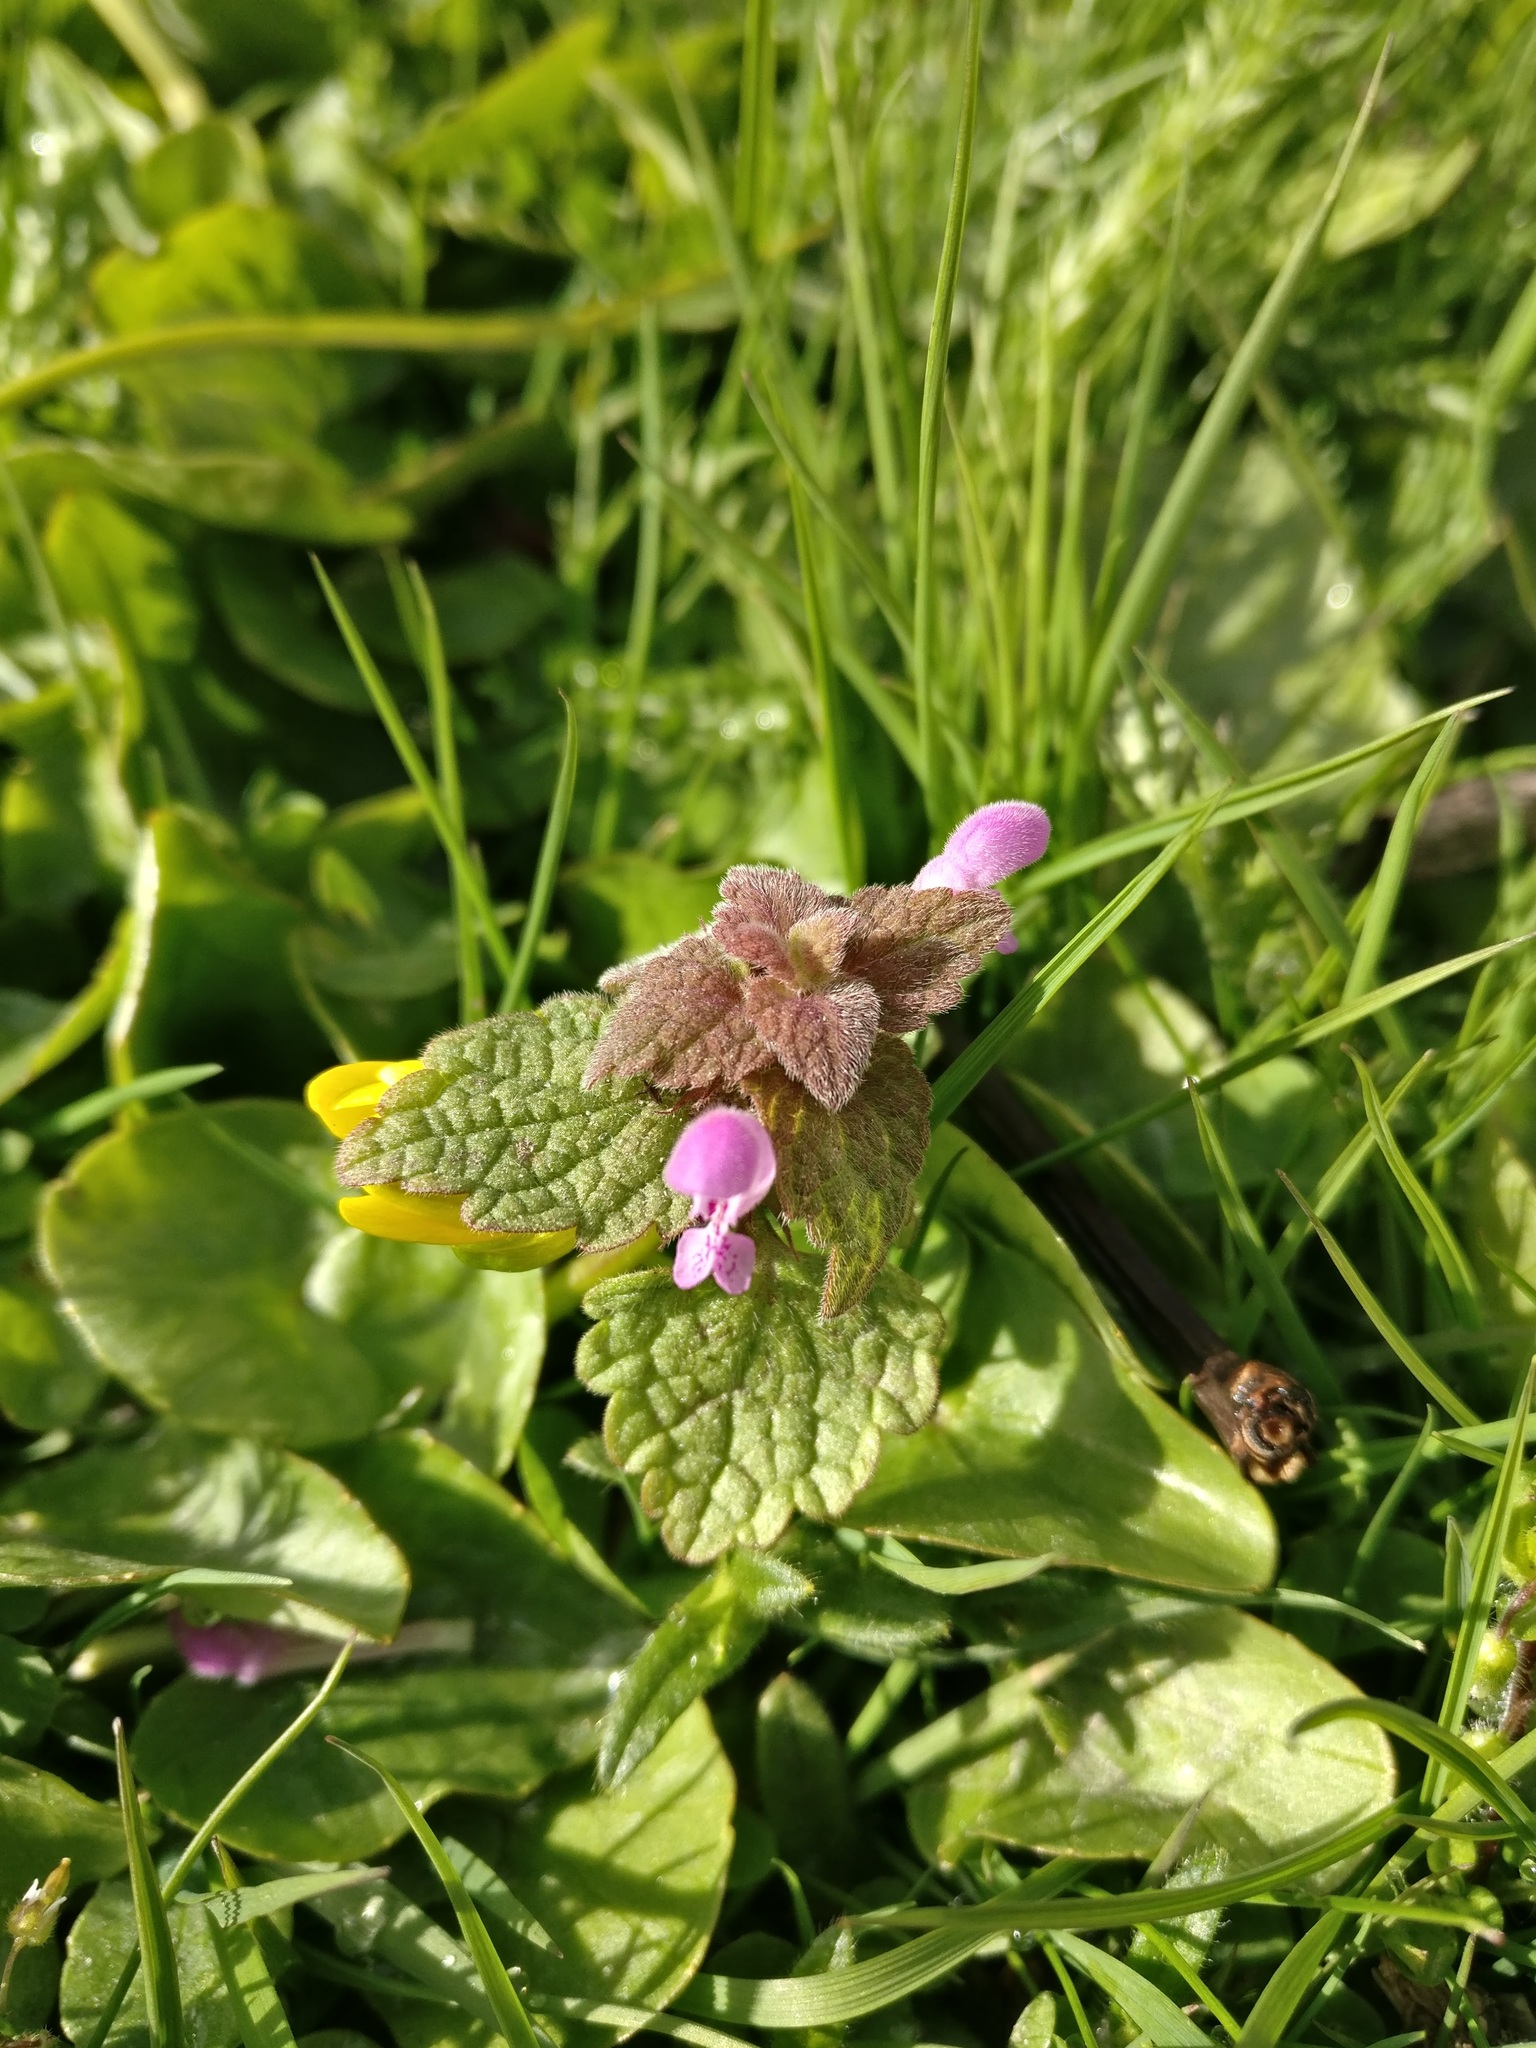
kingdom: Plantae
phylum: Tracheophyta
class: Magnoliopsida
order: Lamiales
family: Lamiaceae
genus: Lamium
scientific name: Lamium purpureum
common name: Red dead-nettle
